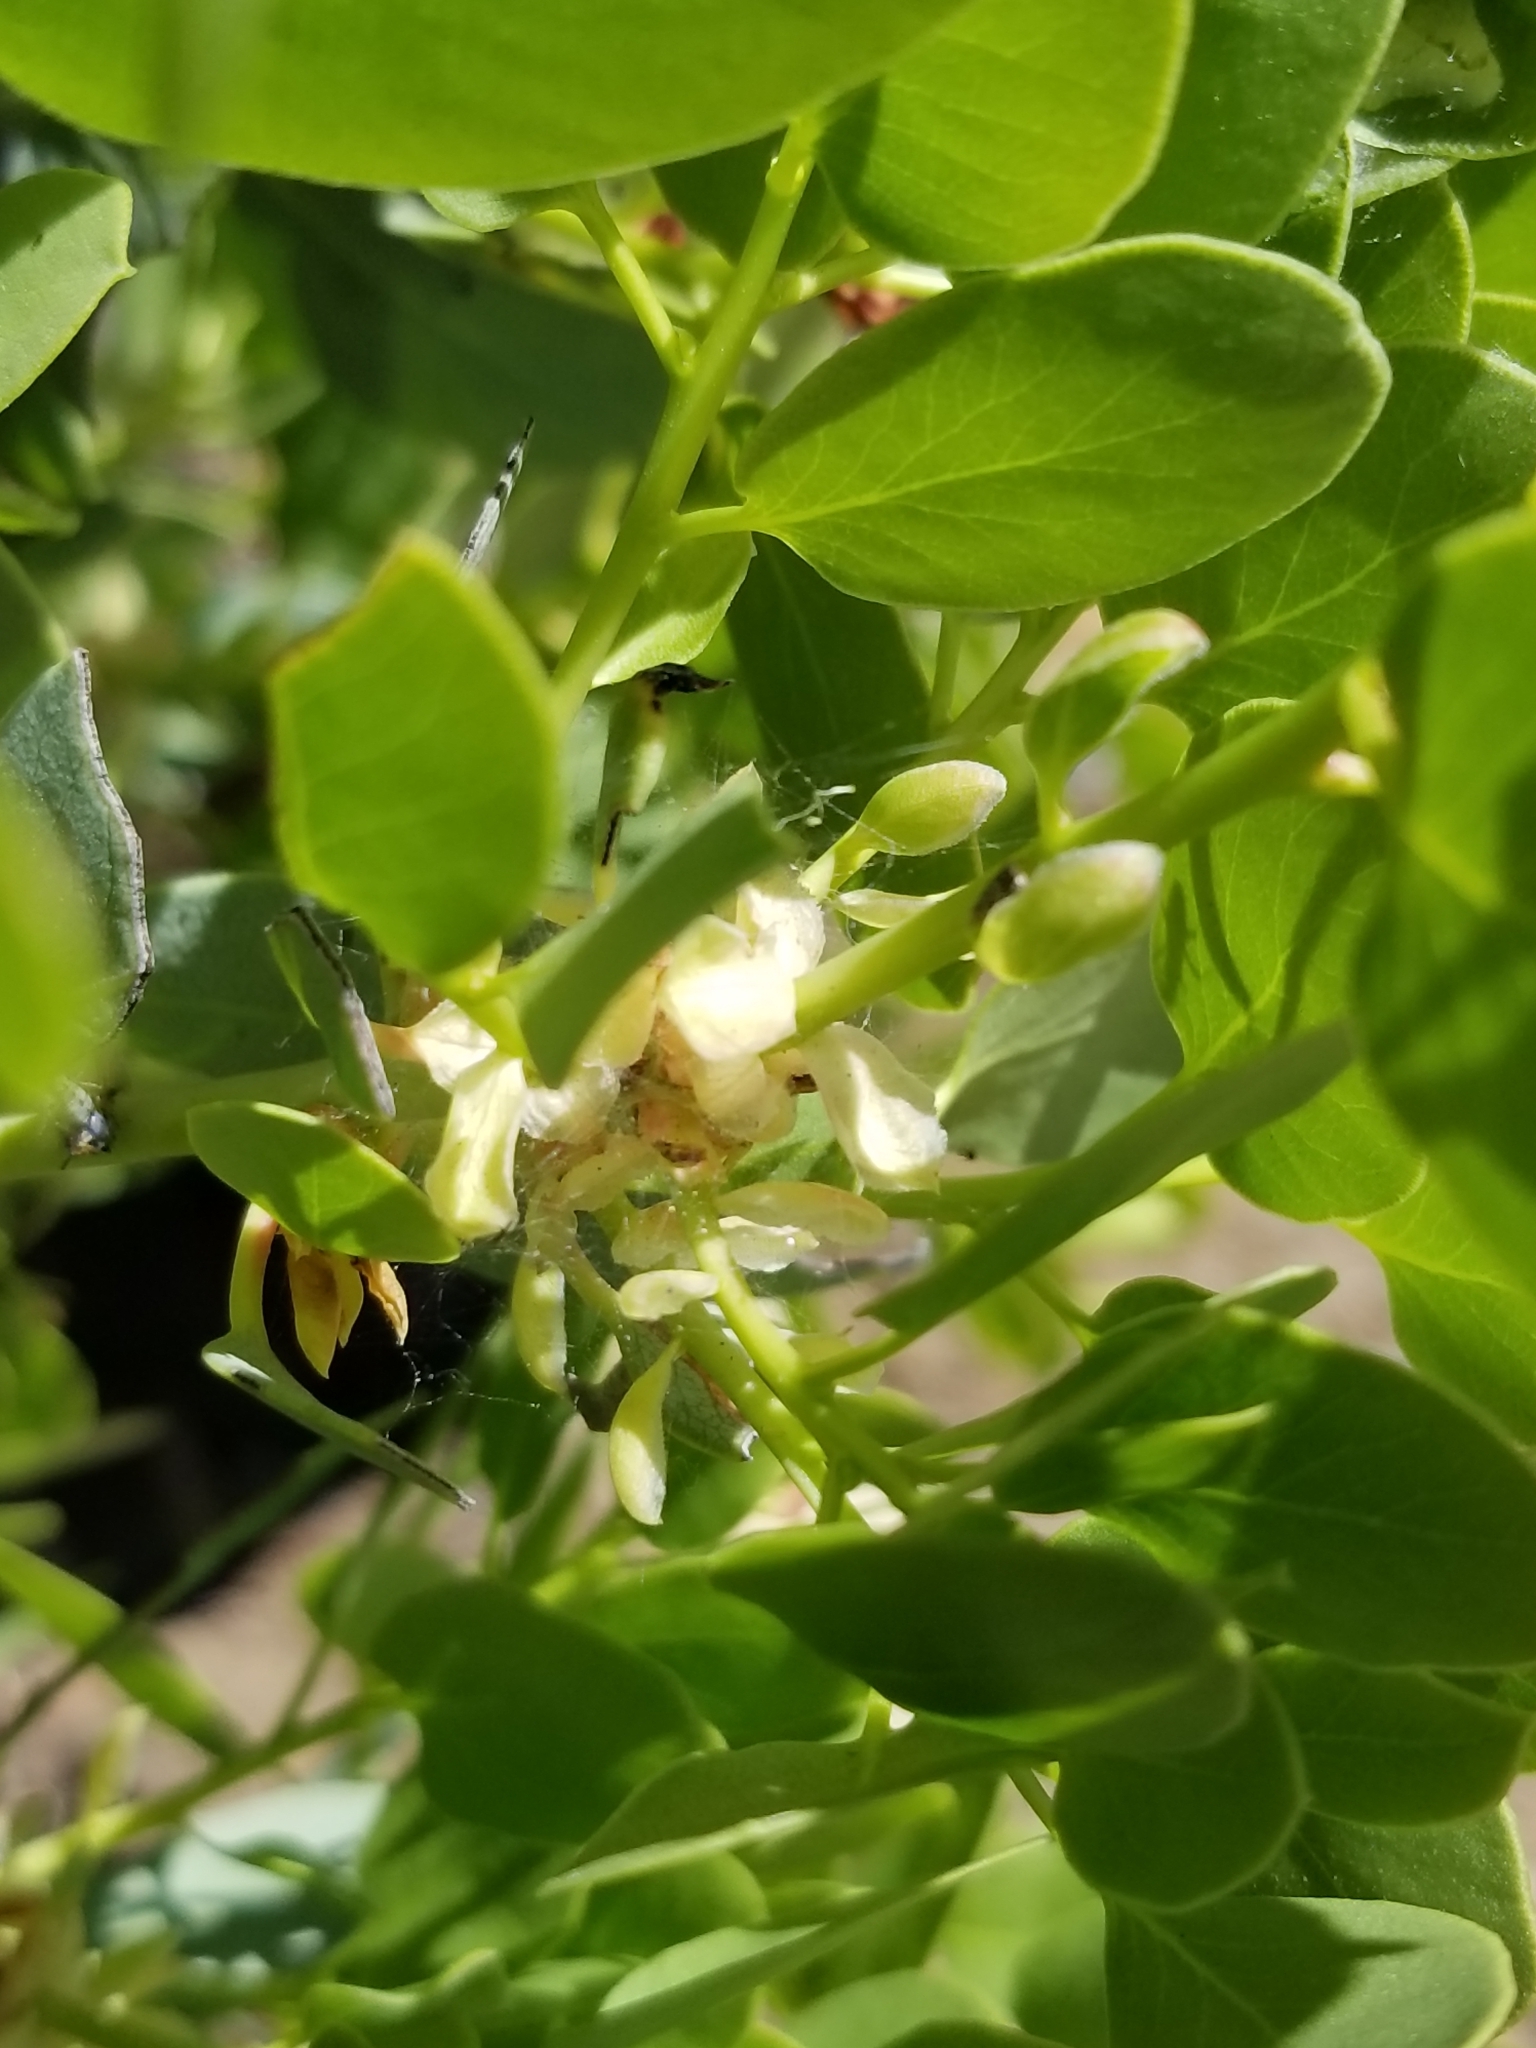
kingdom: Plantae
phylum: Tracheophyta
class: Magnoliopsida
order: Ericales
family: Ericaceae
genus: Arctostaphylos
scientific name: Arctostaphylos glauca
